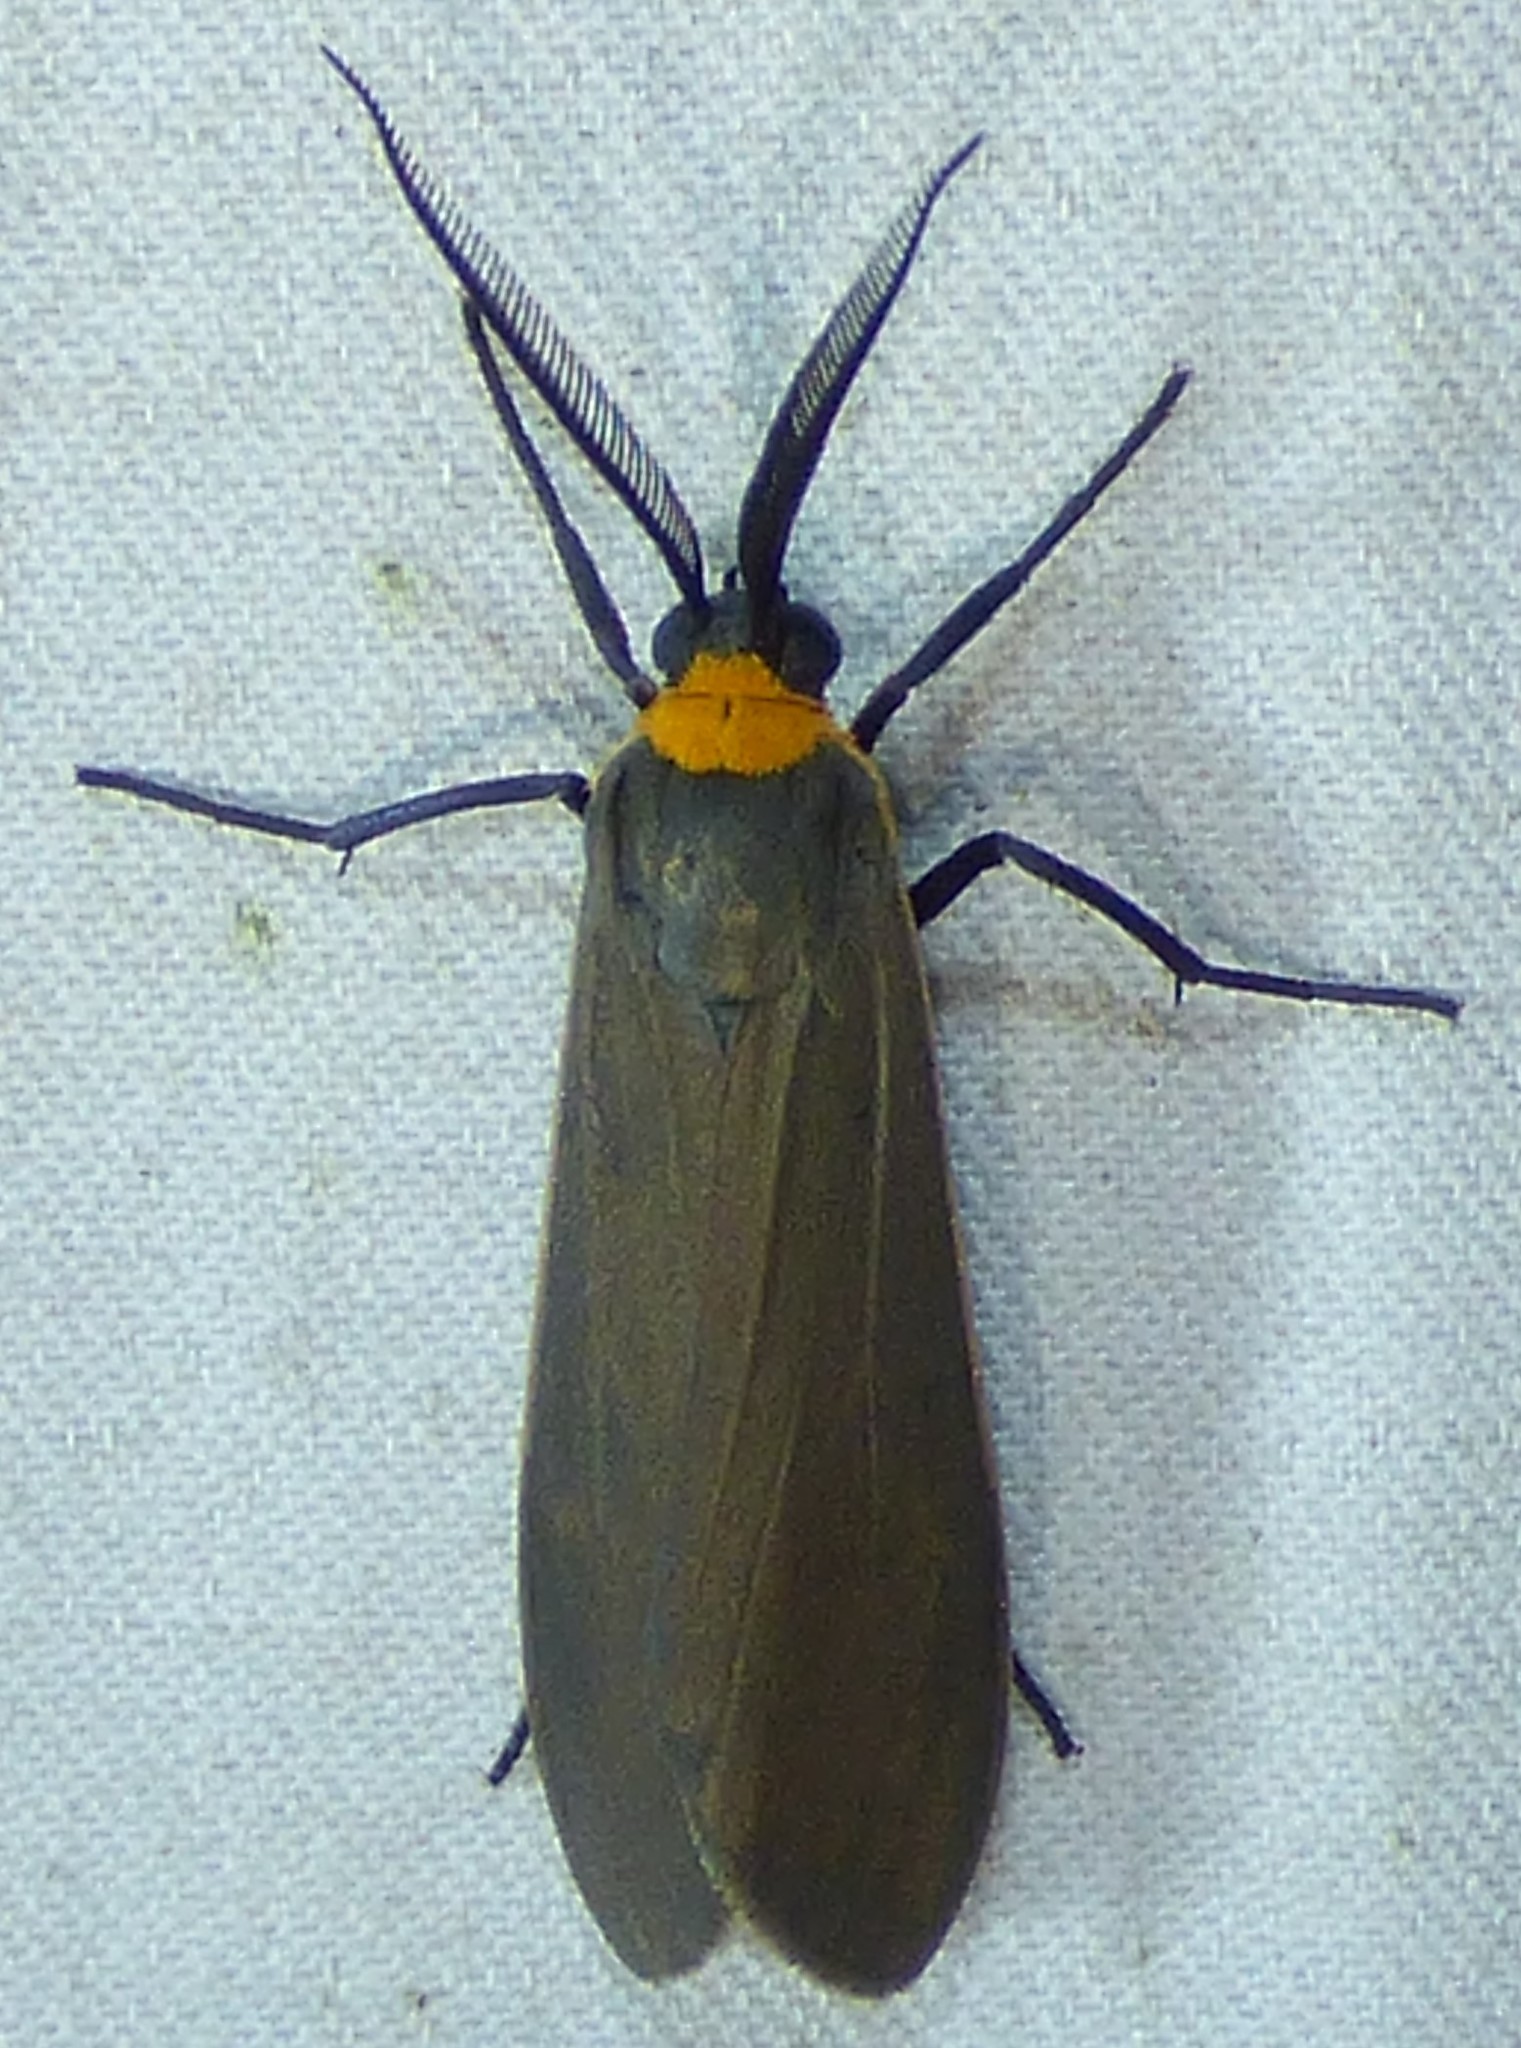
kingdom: Animalia
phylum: Arthropoda
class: Insecta
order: Lepidoptera
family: Erebidae
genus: Cisseps
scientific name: Cisseps fulvicollis
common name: Yellow-collared scape moth
